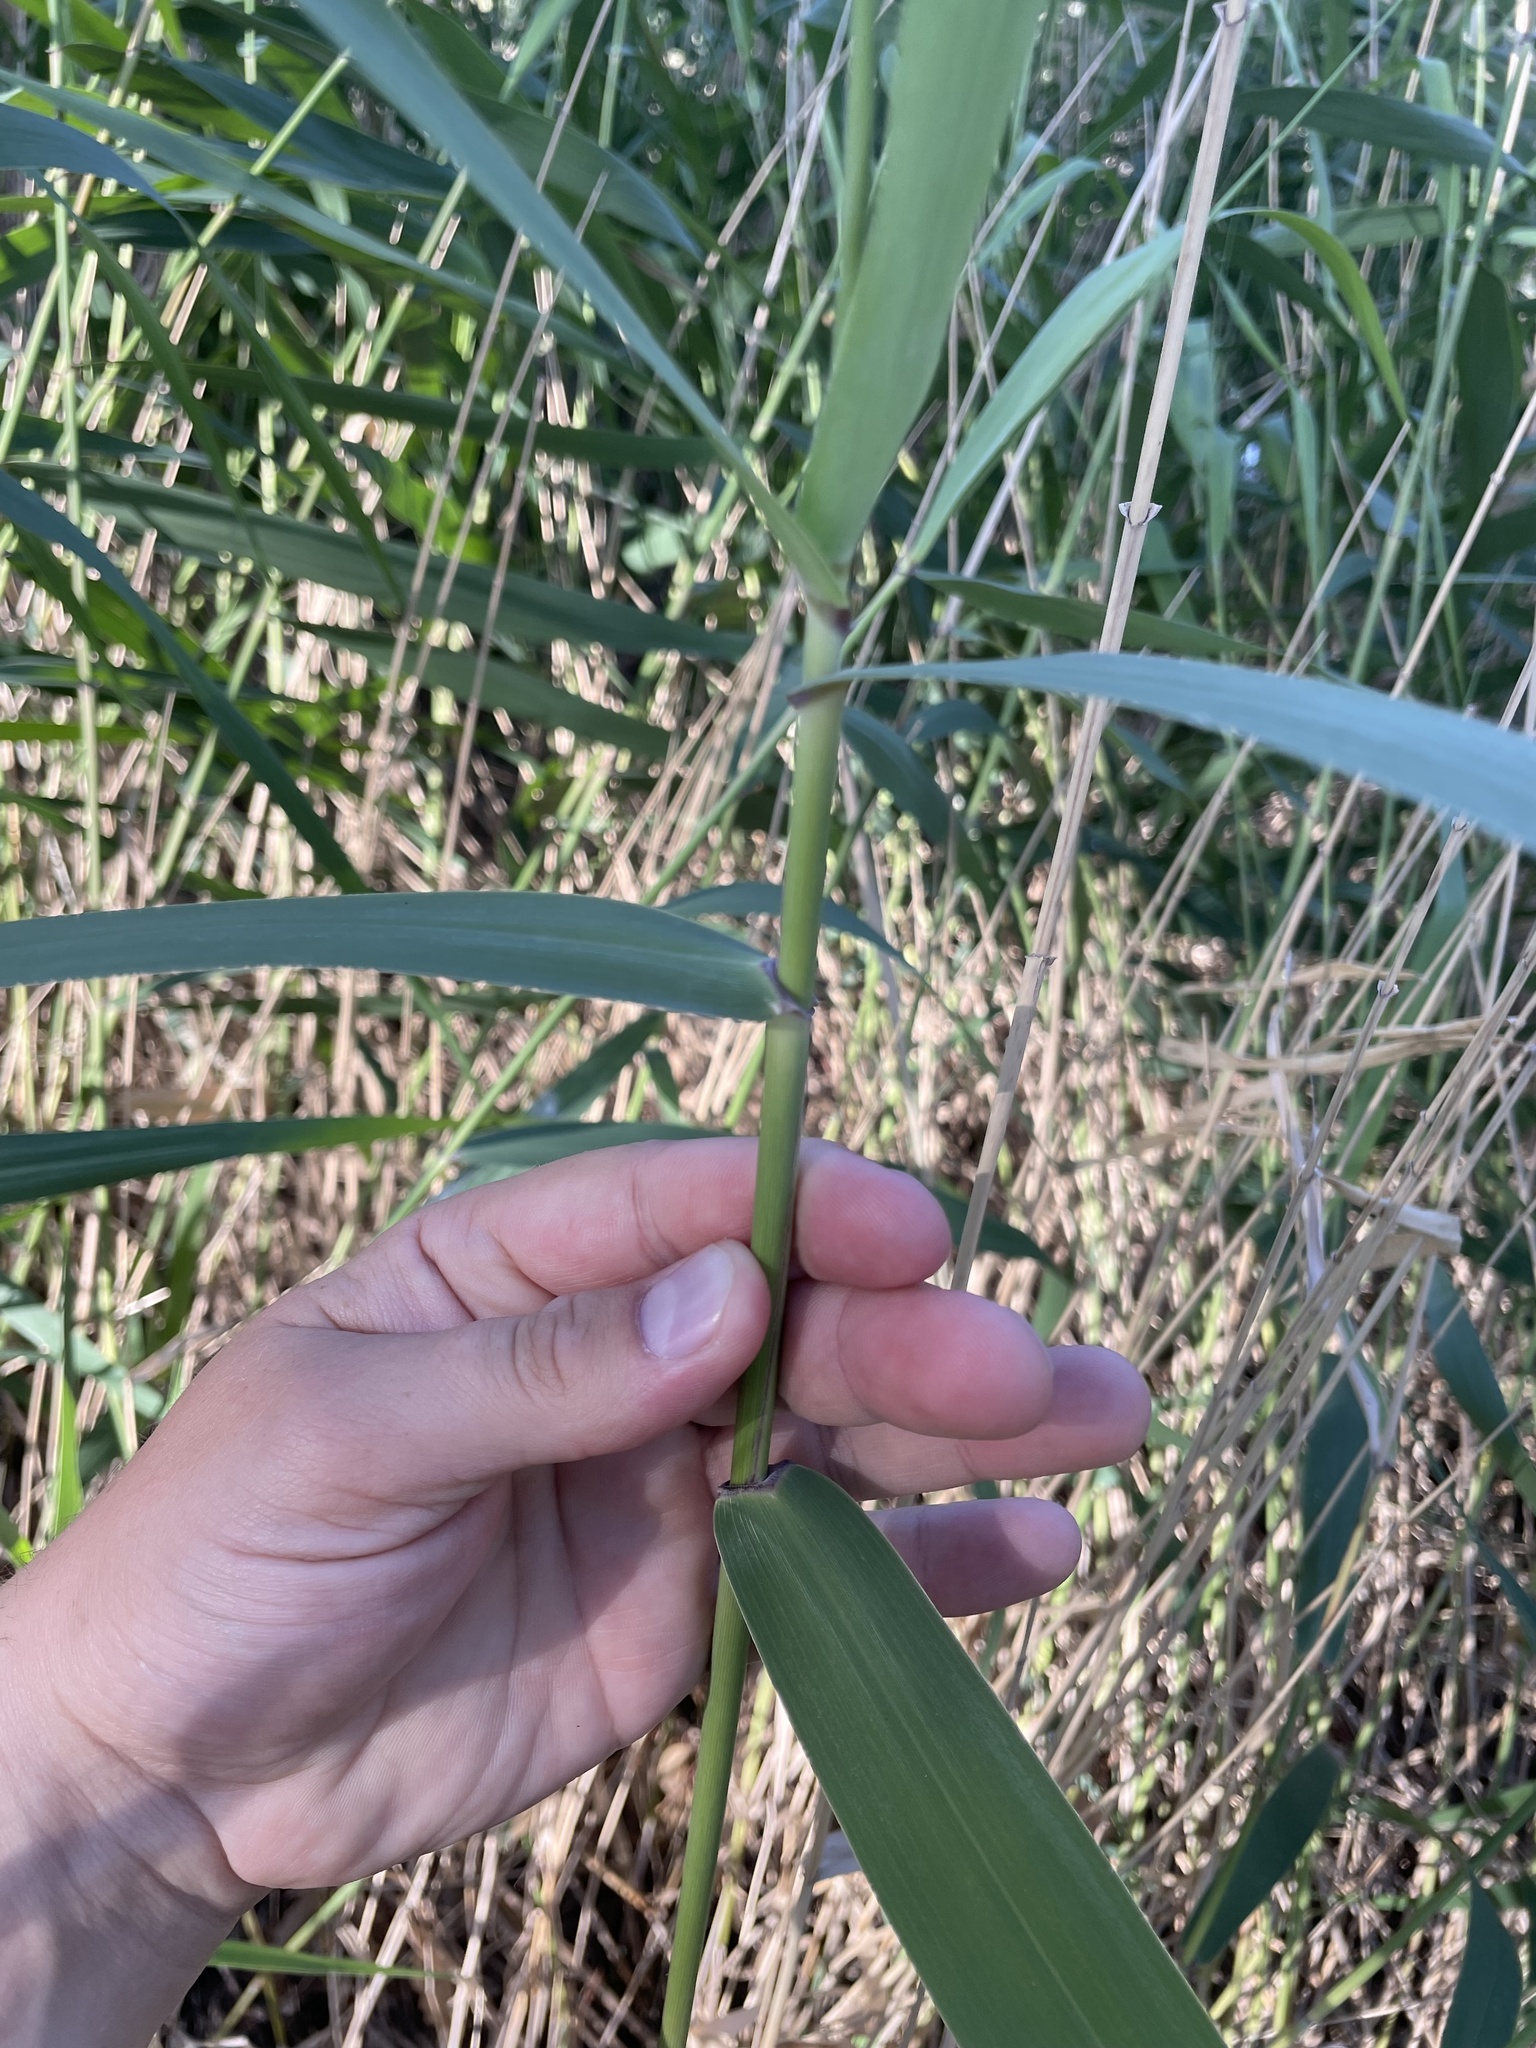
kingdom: Plantae
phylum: Tracheophyta
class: Liliopsida
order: Poales
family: Poaceae
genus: Phragmites
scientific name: Phragmites australis
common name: Common reed
